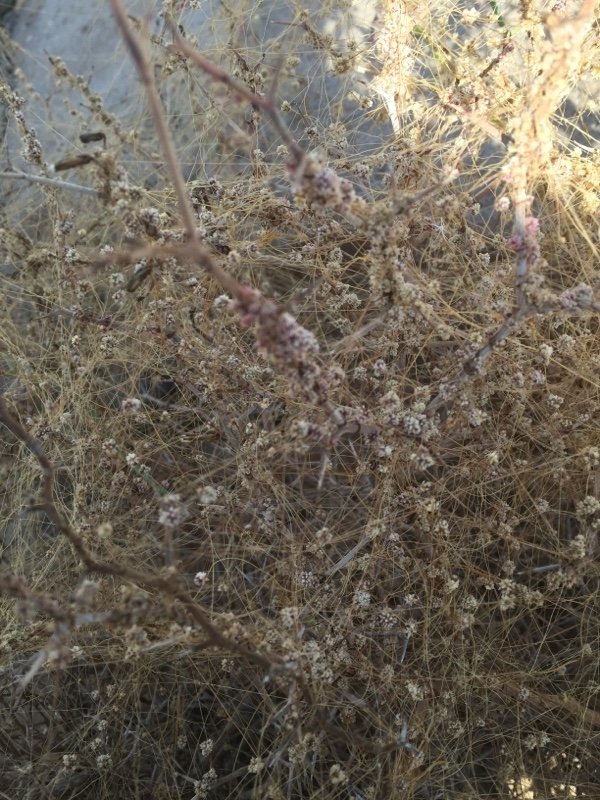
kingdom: Plantae
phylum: Tracheophyta
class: Magnoliopsida
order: Solanales
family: Convolvulaceae
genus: Cuscuta
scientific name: Cuscuta approximata
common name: Alfalfa dodder
